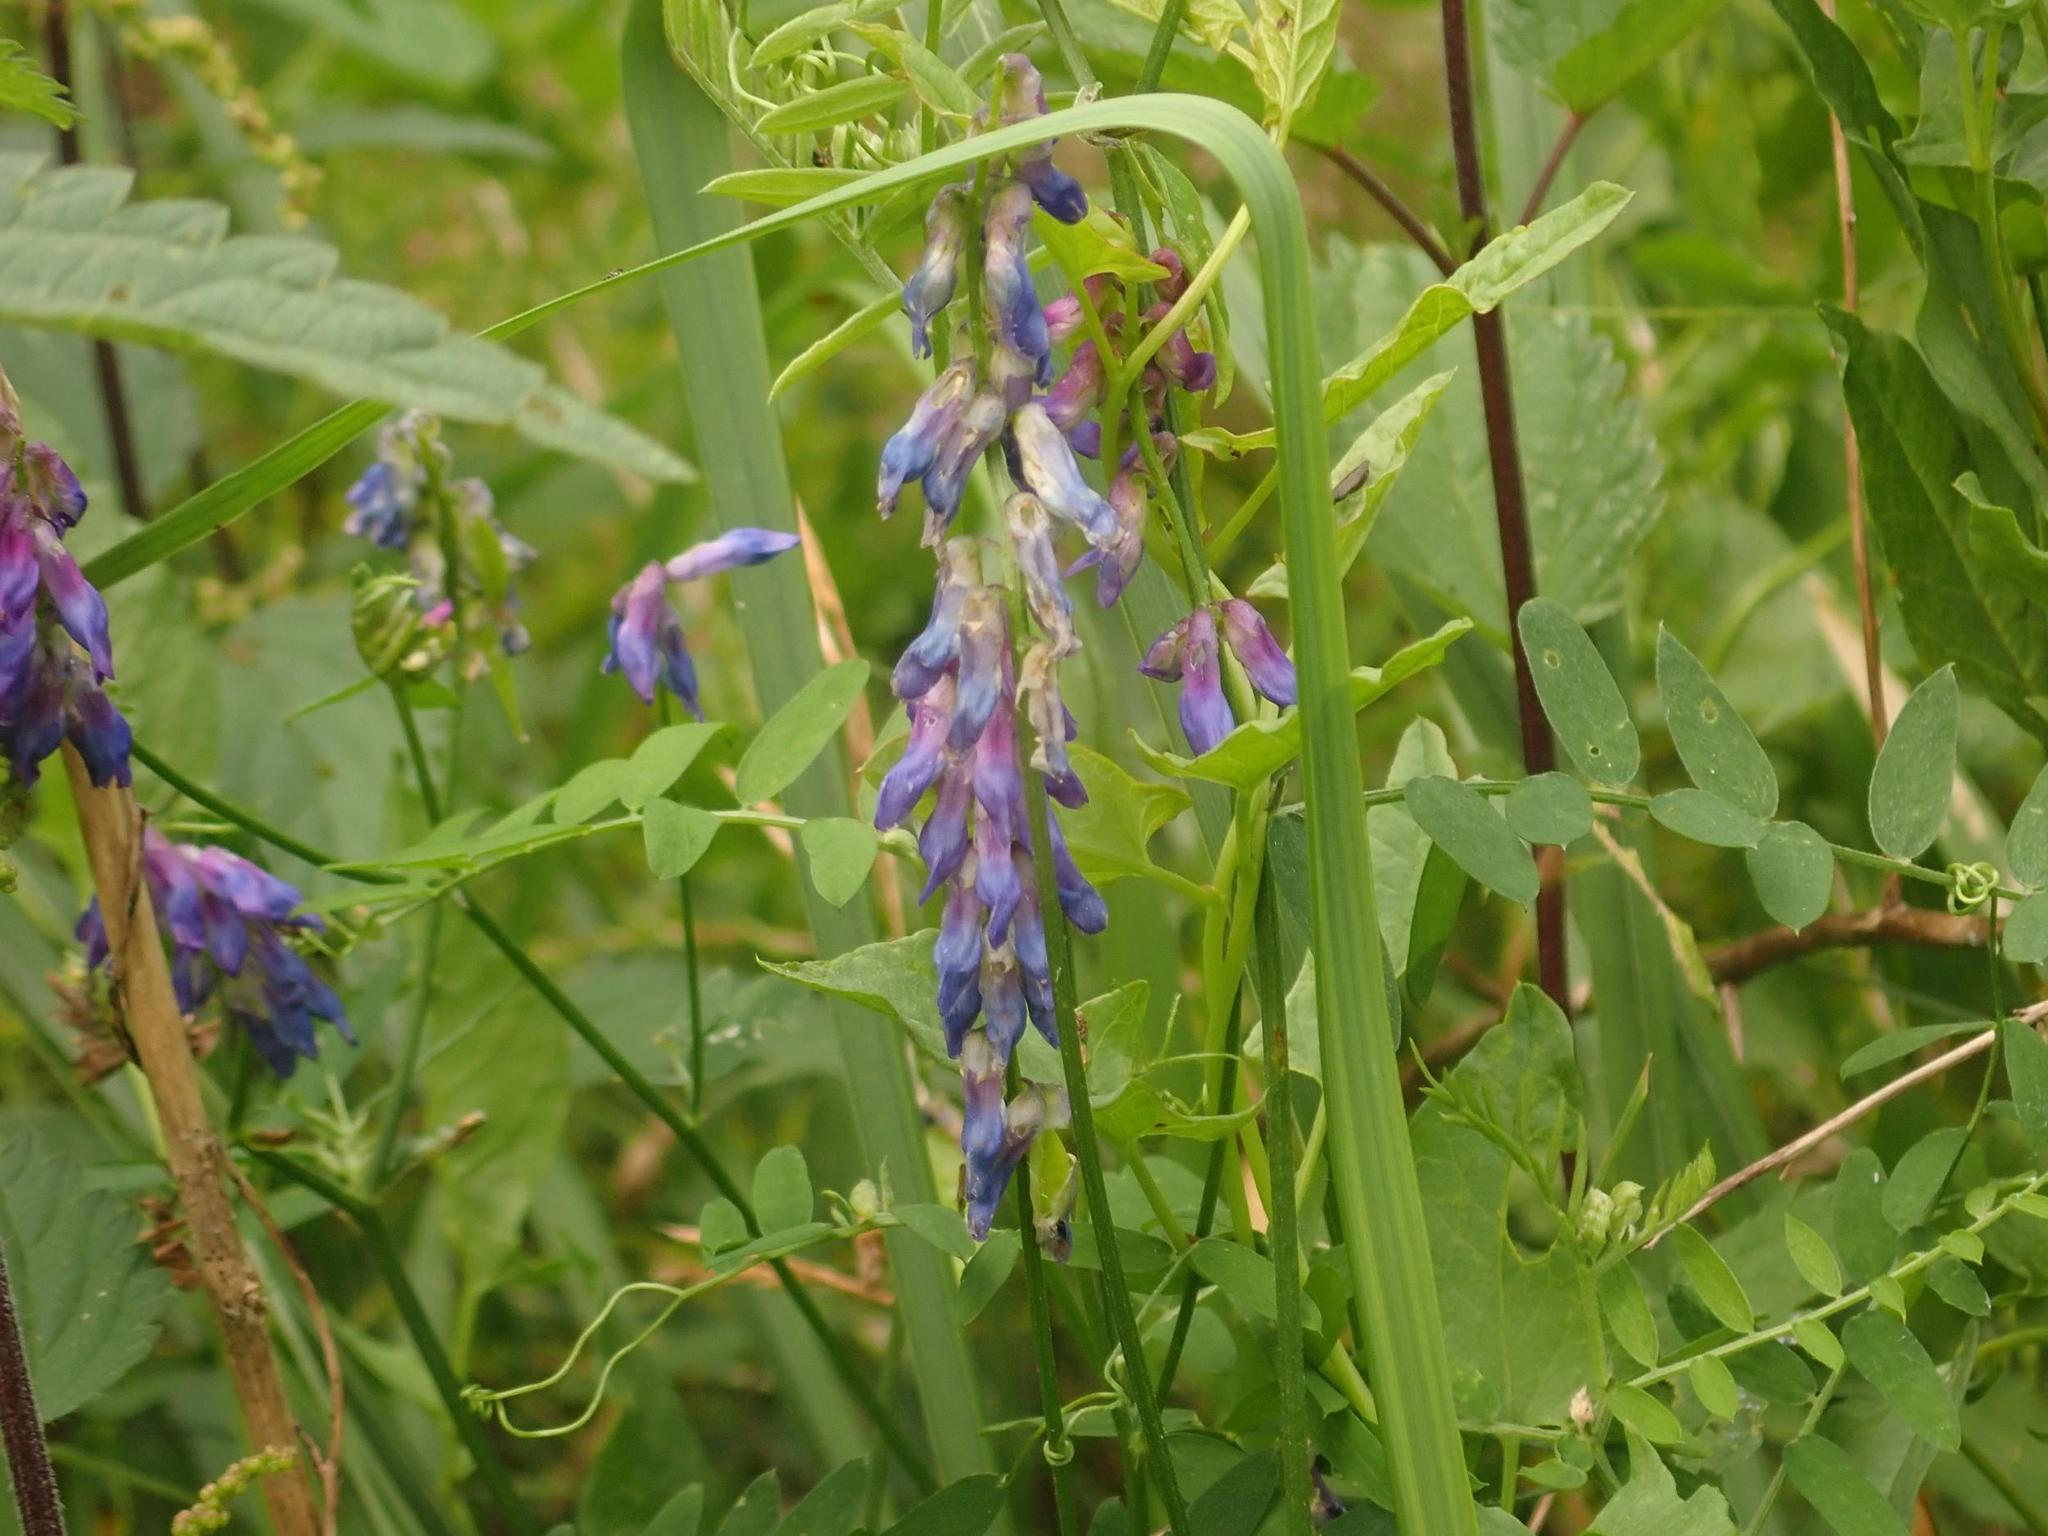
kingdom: Plantae
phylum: Tracheophyta
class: Magnoliopsida
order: Fabales
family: Fabaceae
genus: Vicia
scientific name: Vicia cracca
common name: Bird vetch
